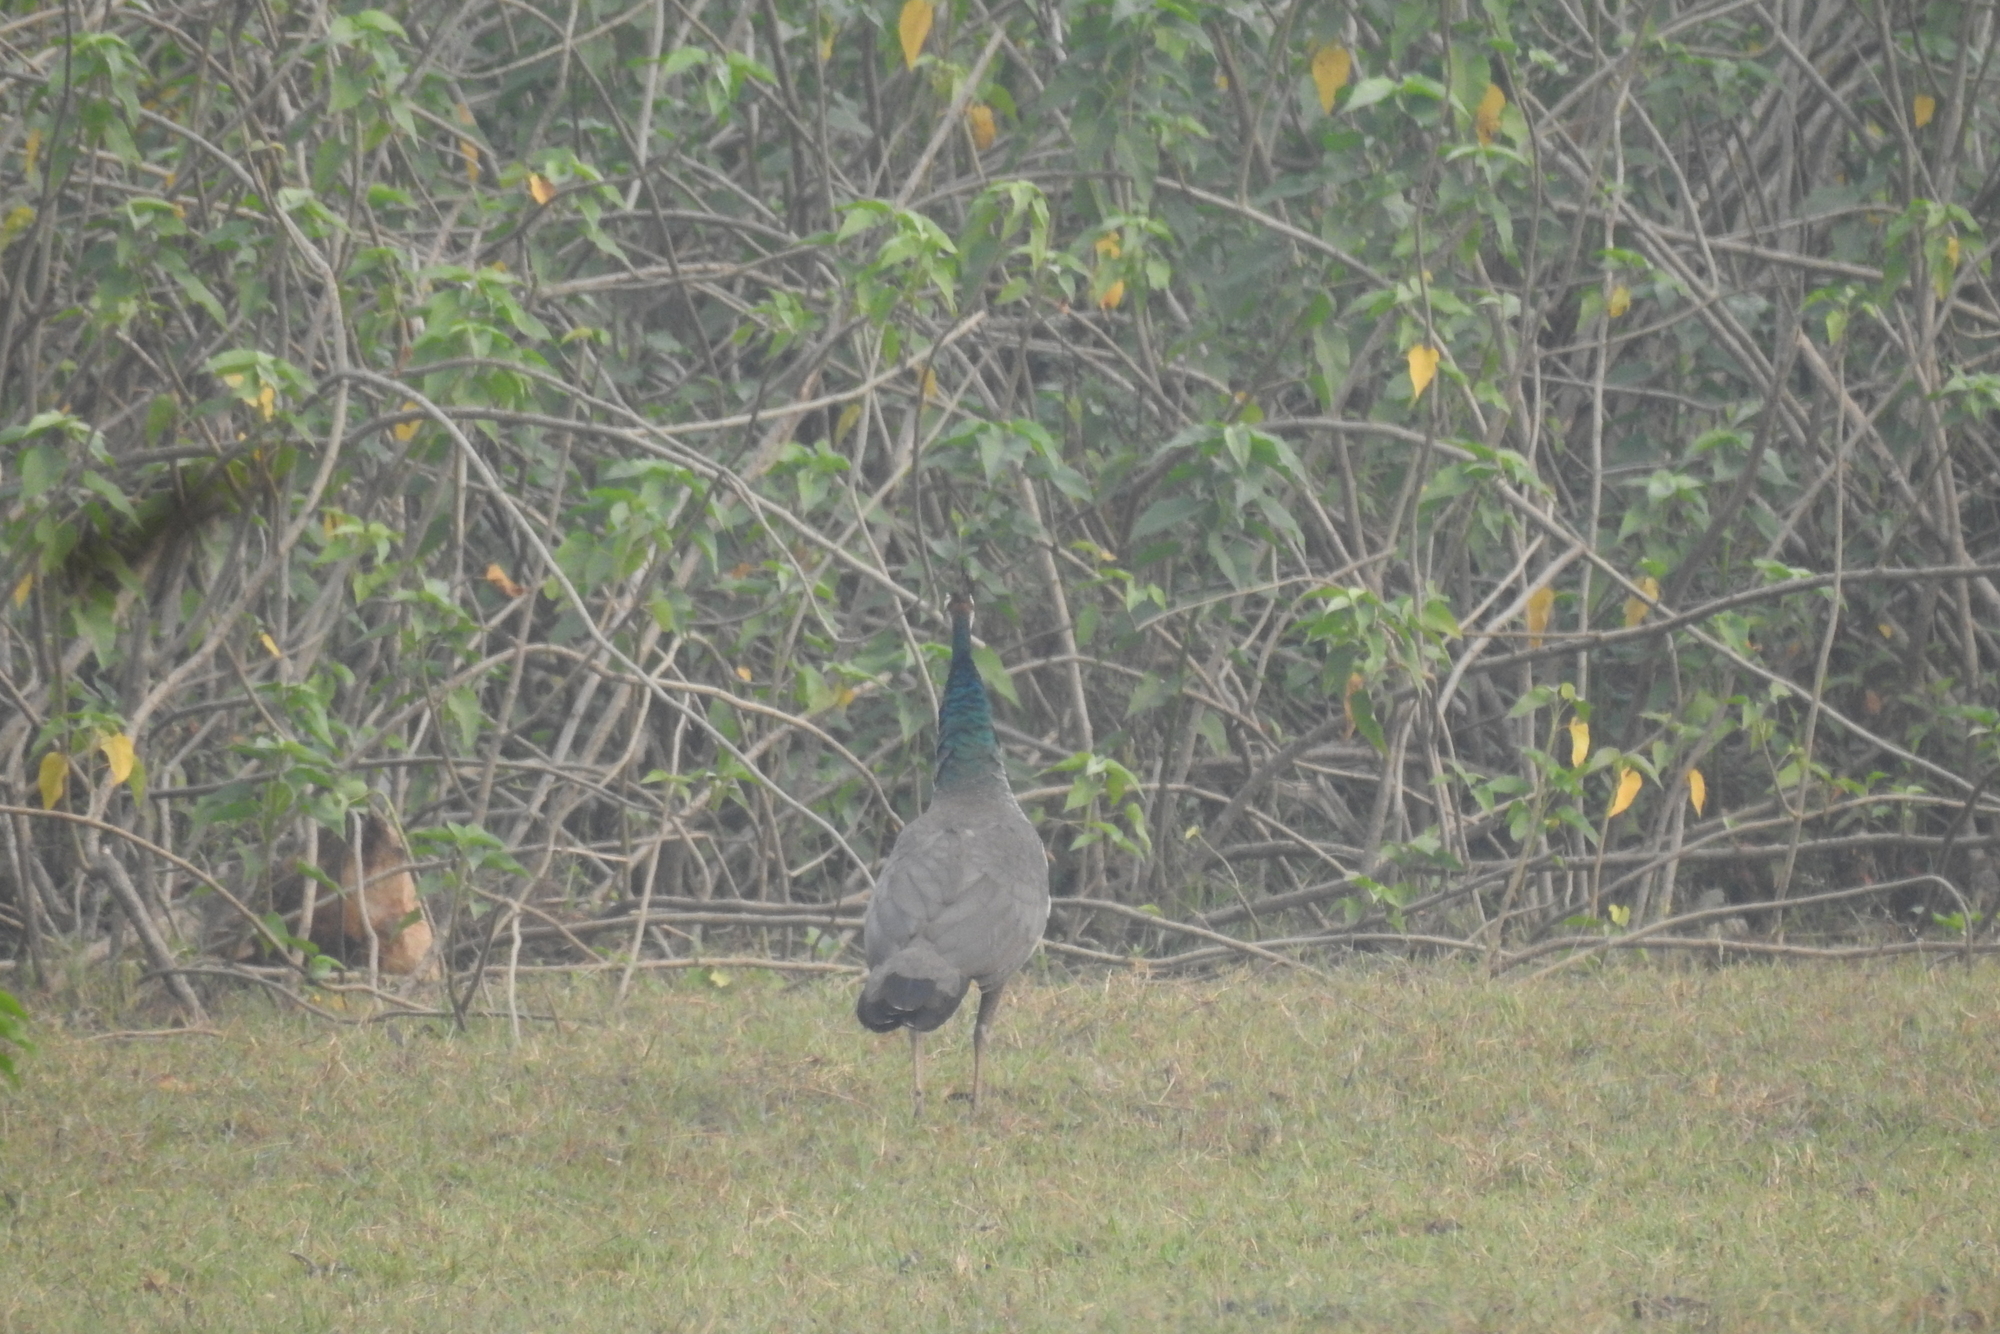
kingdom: Animalia
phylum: Chordata
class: Aves
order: Galliformes
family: Phasianidae
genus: Pavo
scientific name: Pavo cristatus
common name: Indian peafowl
